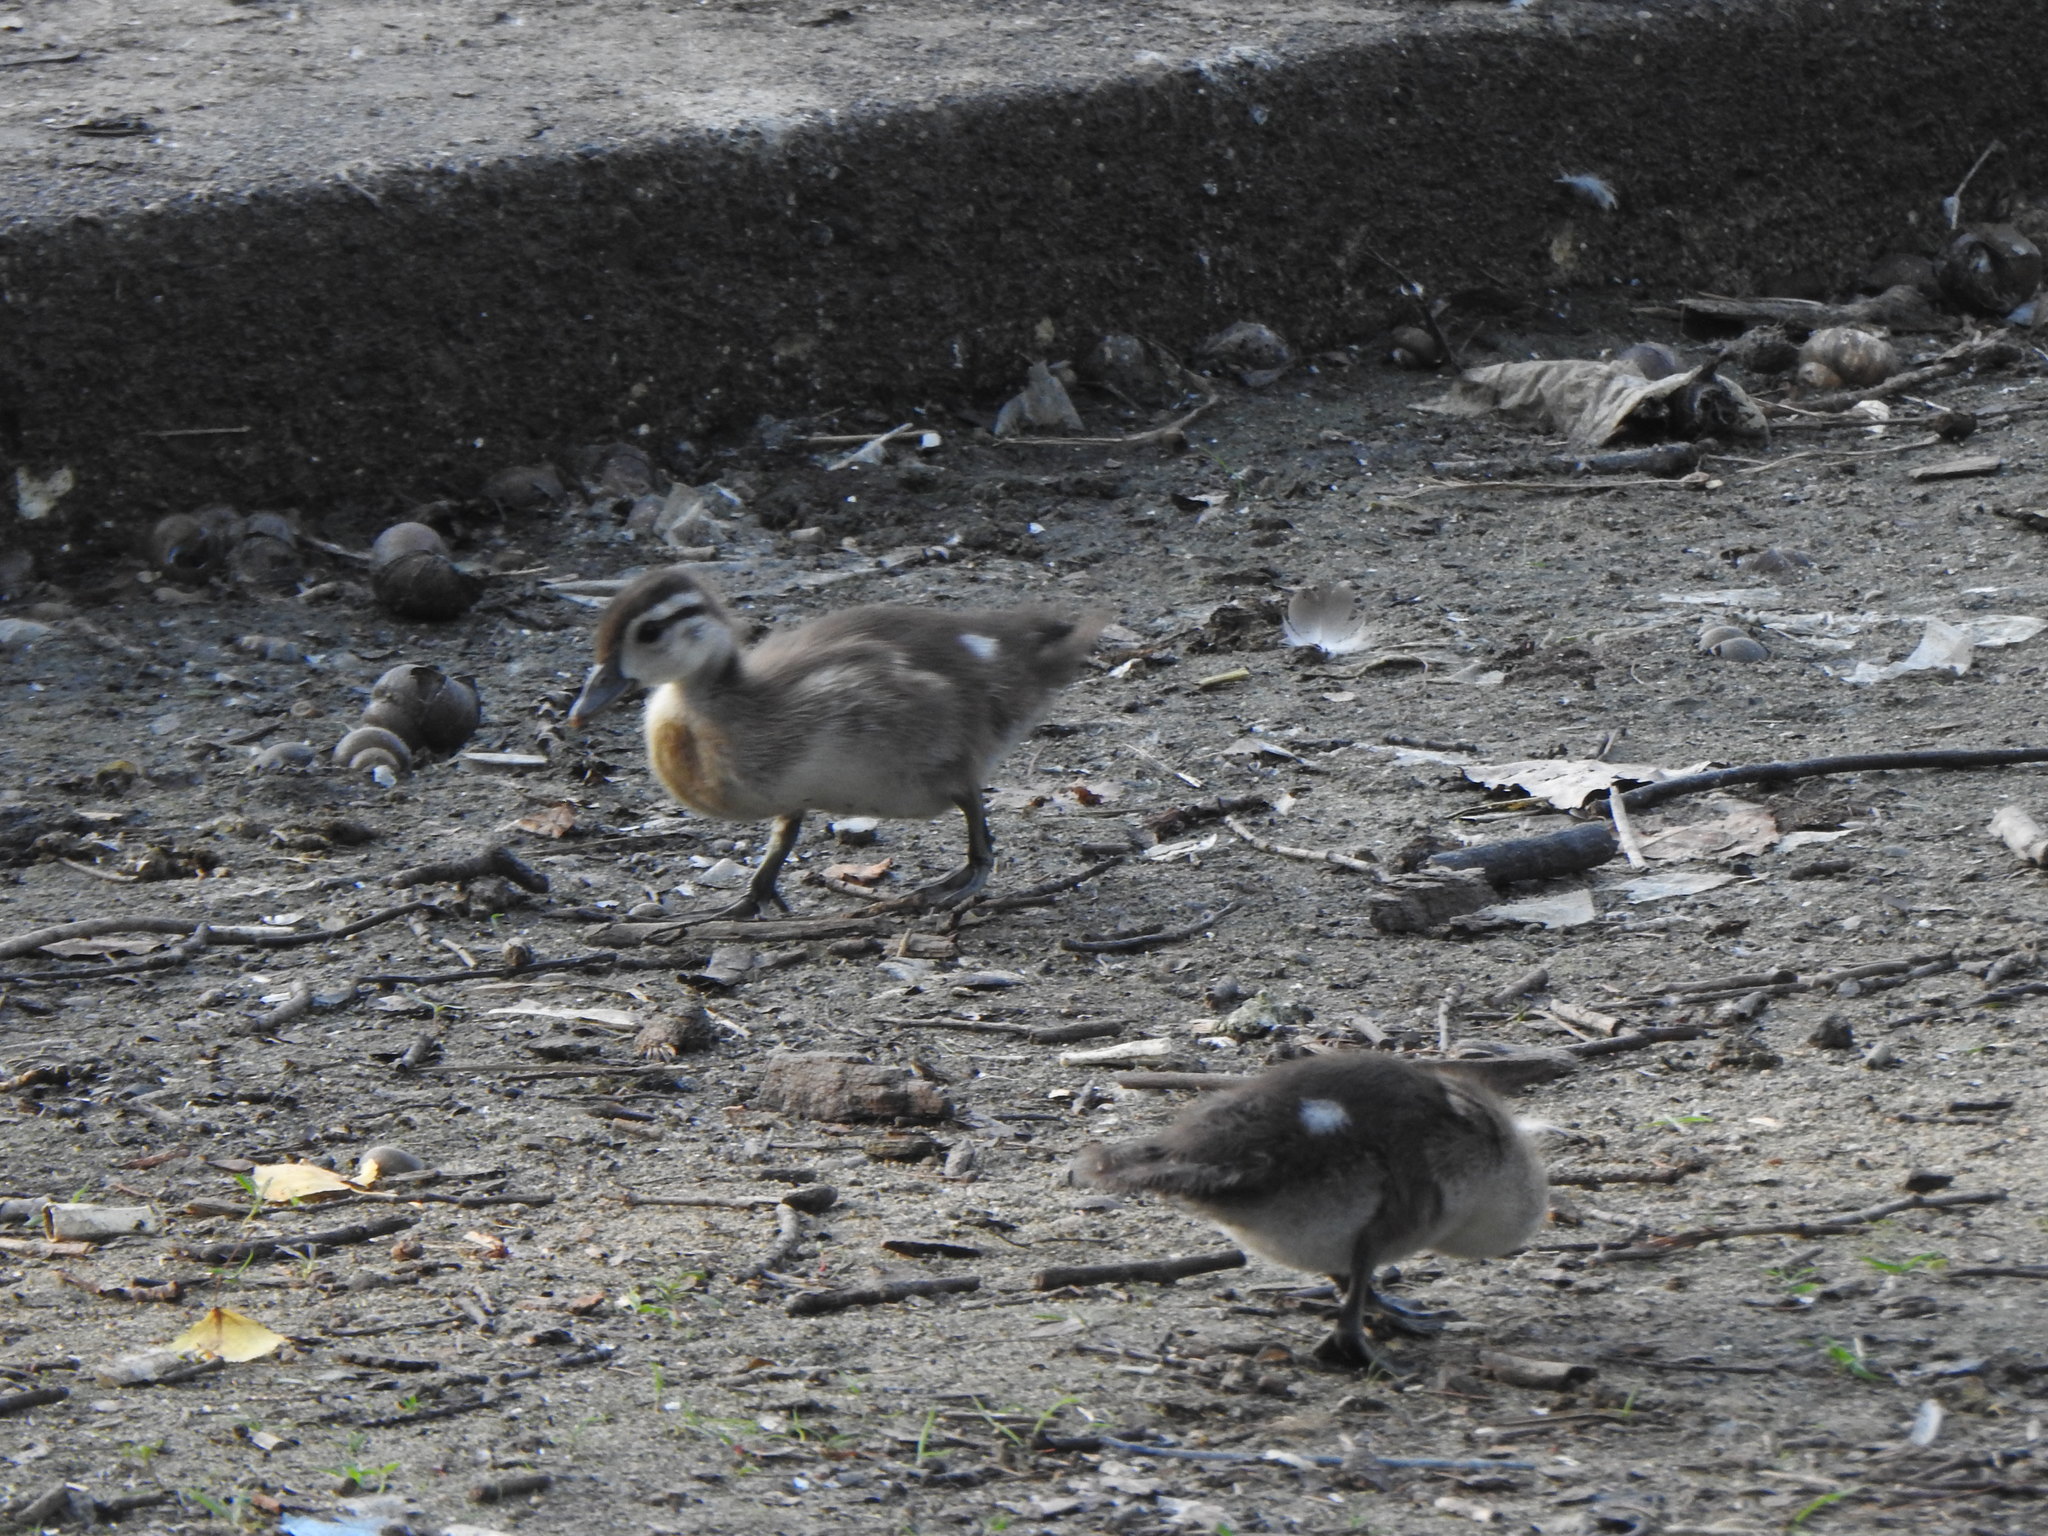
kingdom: Animalia
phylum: Chordata
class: Aves
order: Anseriformes
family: Anatidae
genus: Aix
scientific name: Aix sponsa
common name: Wood duck
